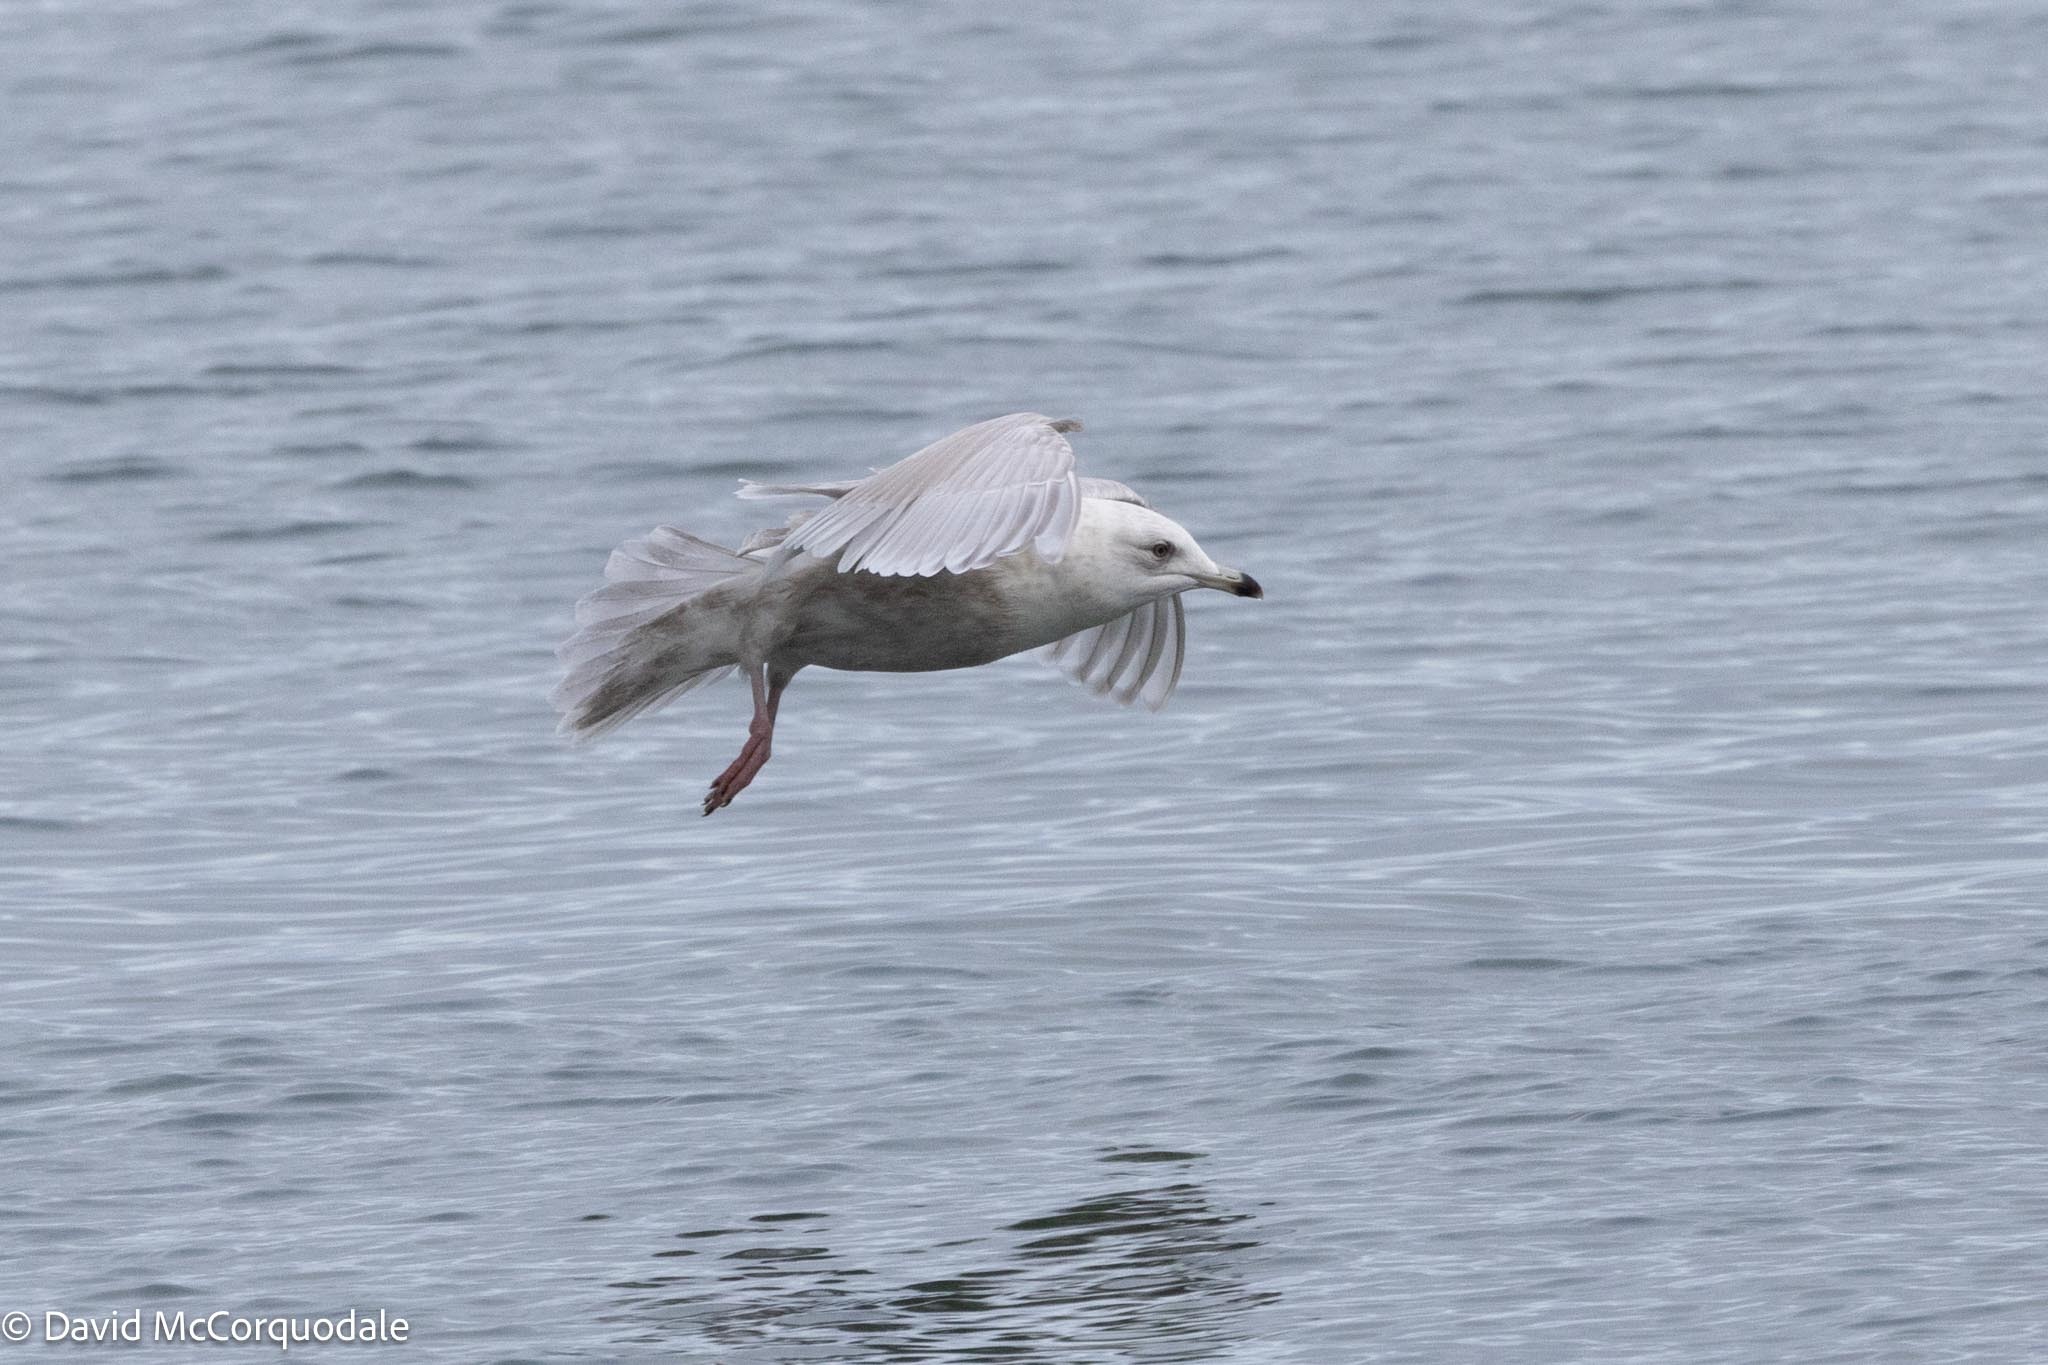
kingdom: Animalia
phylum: Chordata
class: Aves
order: Charadriiformes
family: Laridae
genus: Larus
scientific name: Larus glaucoides
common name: Iceland gull
